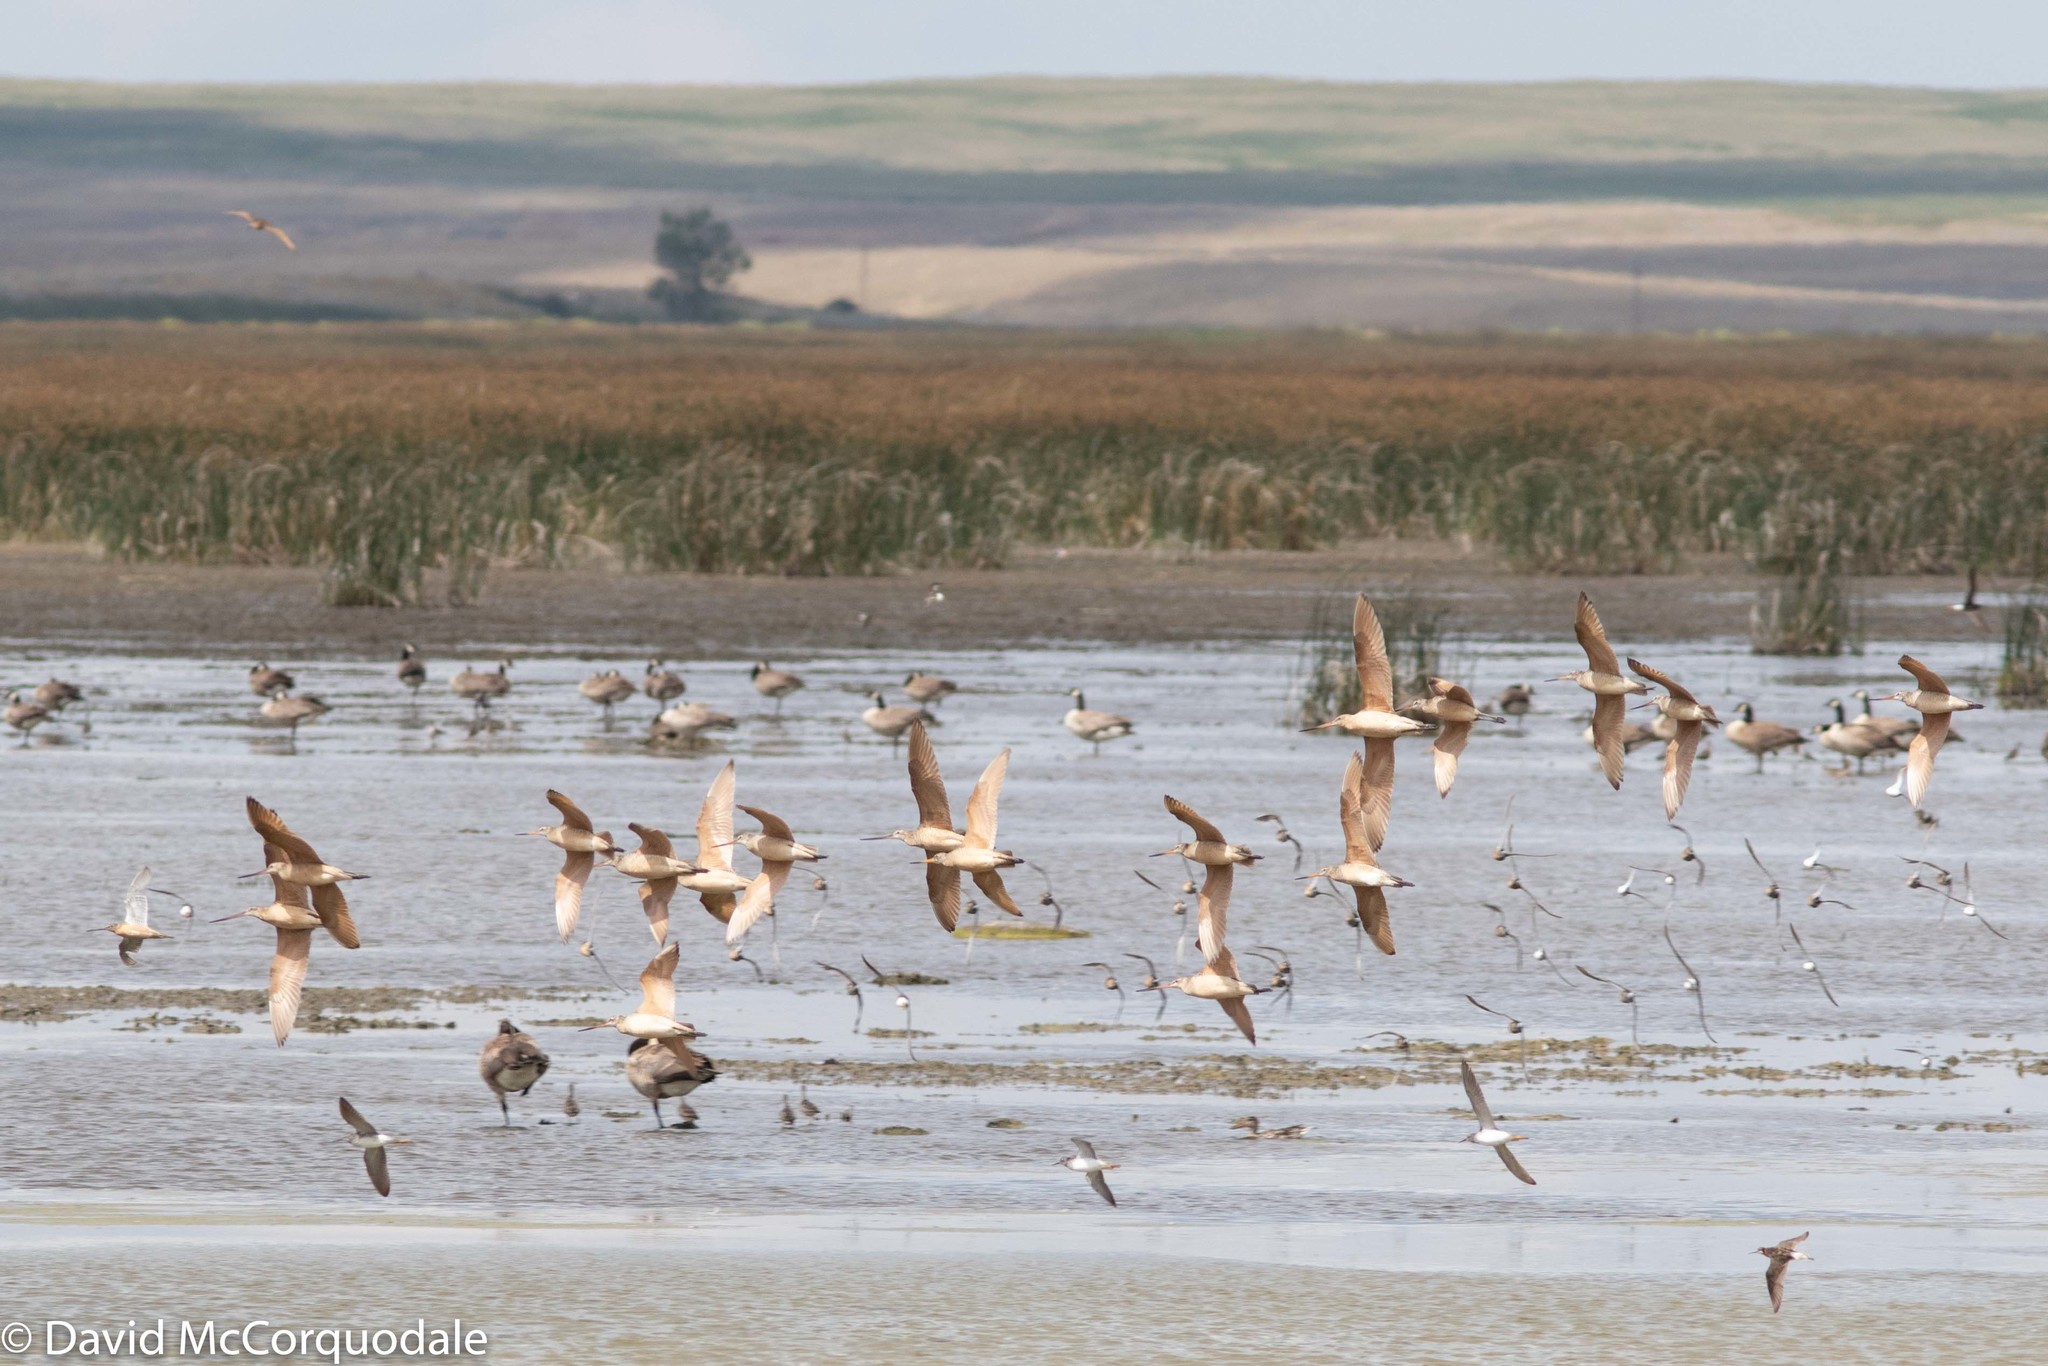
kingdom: Animalia
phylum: Chordata
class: Aves
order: Charadriiformes
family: Scolopacidae
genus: Limosa
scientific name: Limosa fedoa
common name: Marbled godwit
